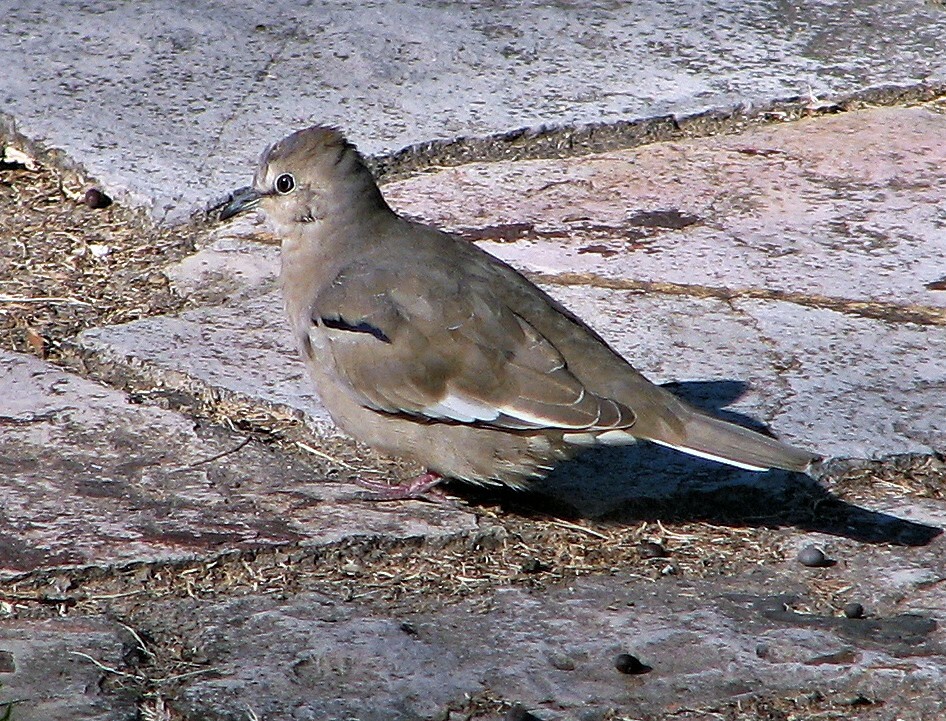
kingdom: Animalia
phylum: Chordata
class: Aves
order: Columbiformes
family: Columbidae
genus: Columbina
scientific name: Columbina picui
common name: Picui ground dove
